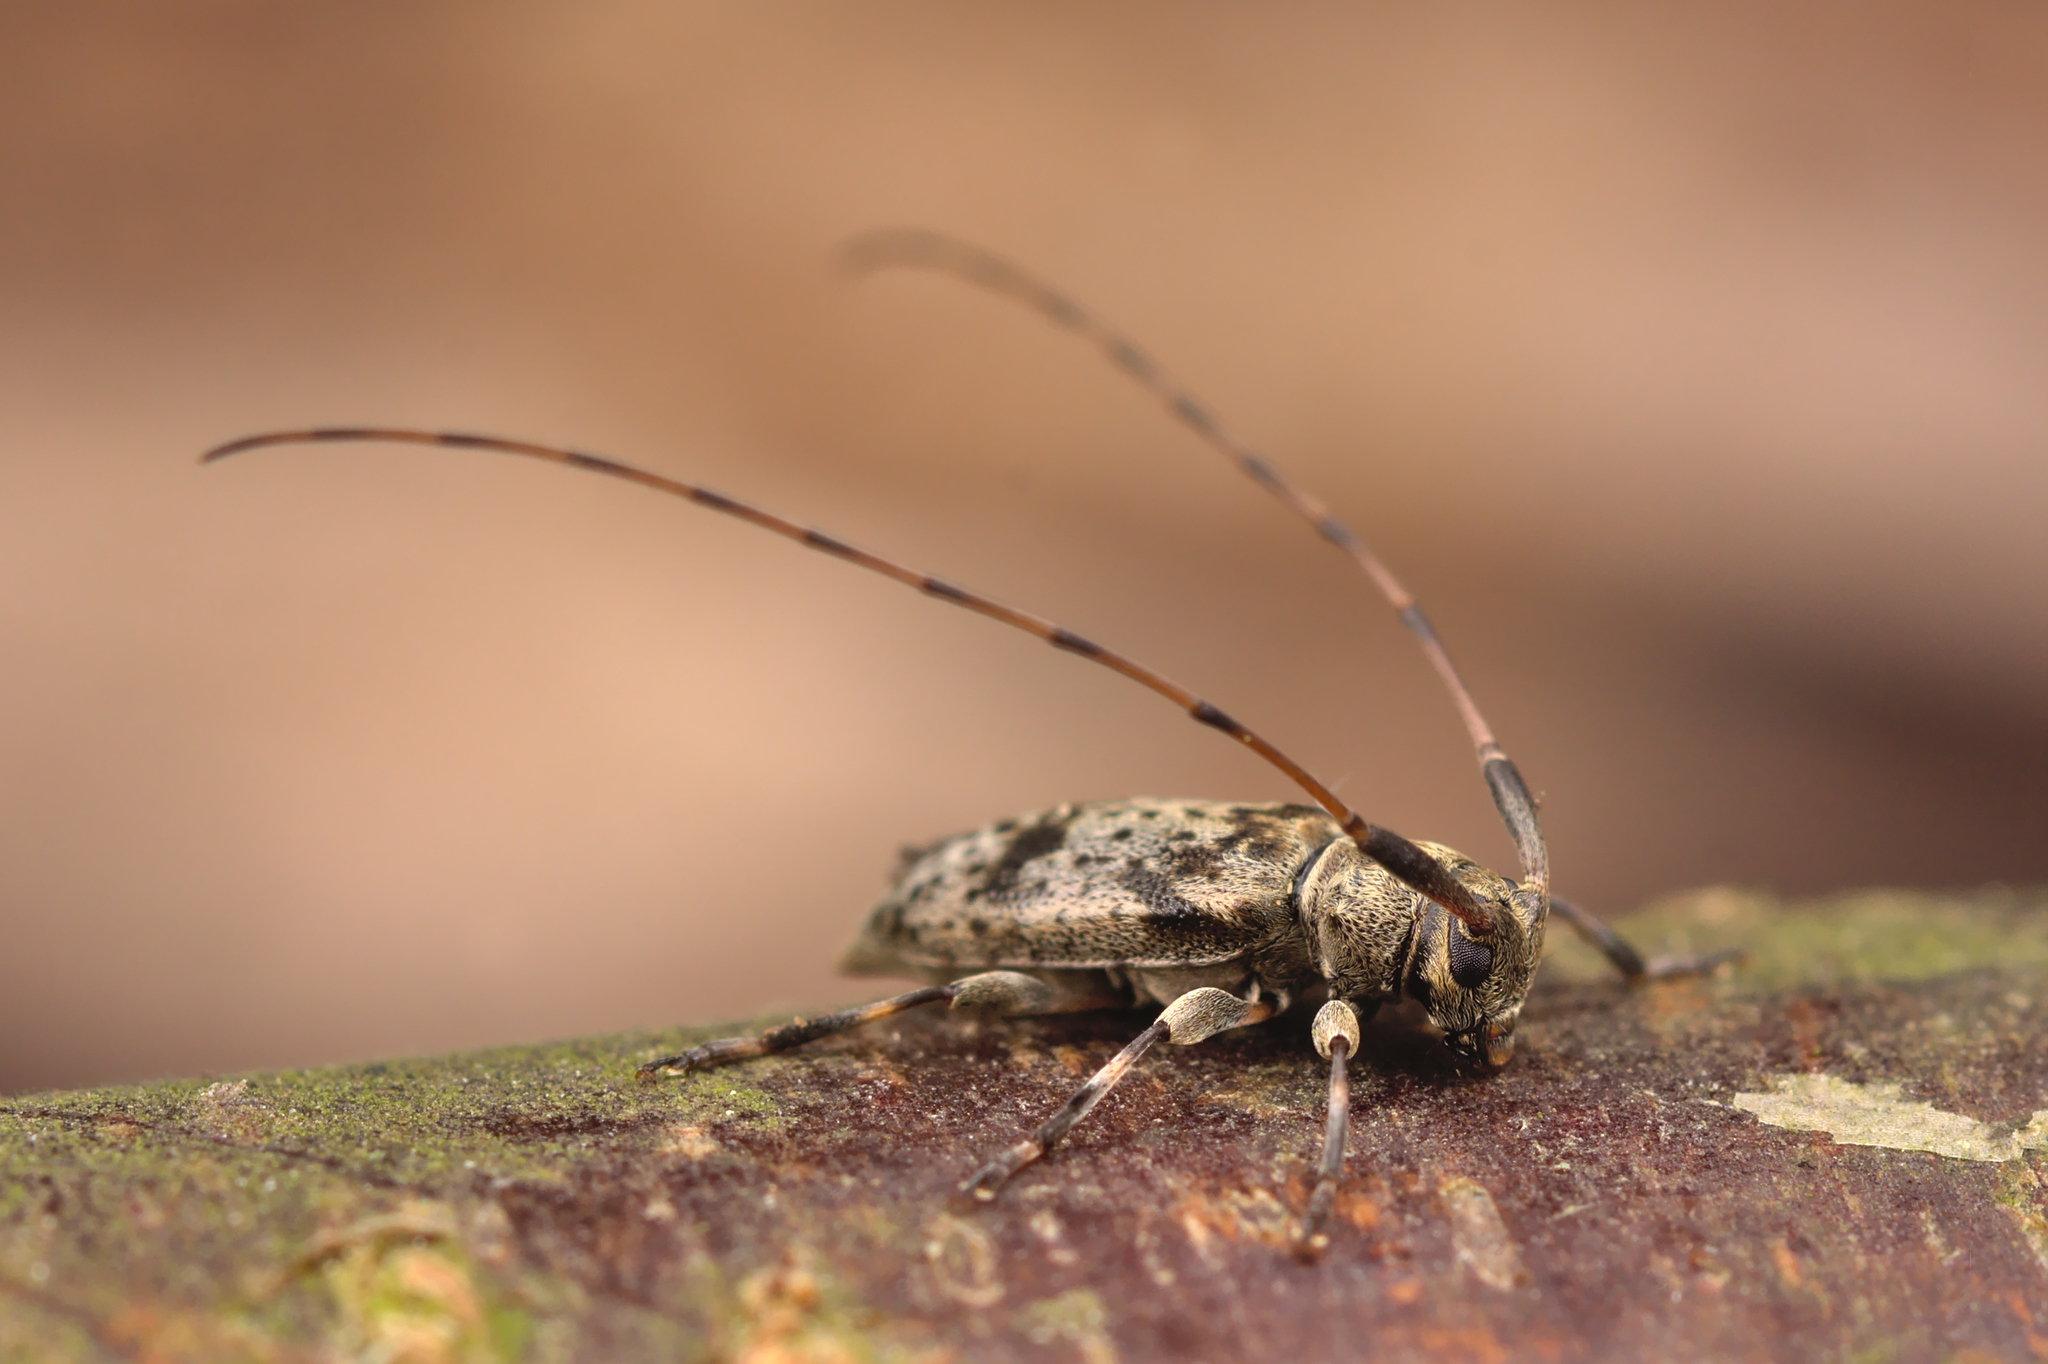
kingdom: Animalia
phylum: Arthropoda
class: Insecta
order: Coleoptera
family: Cerambycidae
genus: Leiopus
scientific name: Leiopus femoratus
